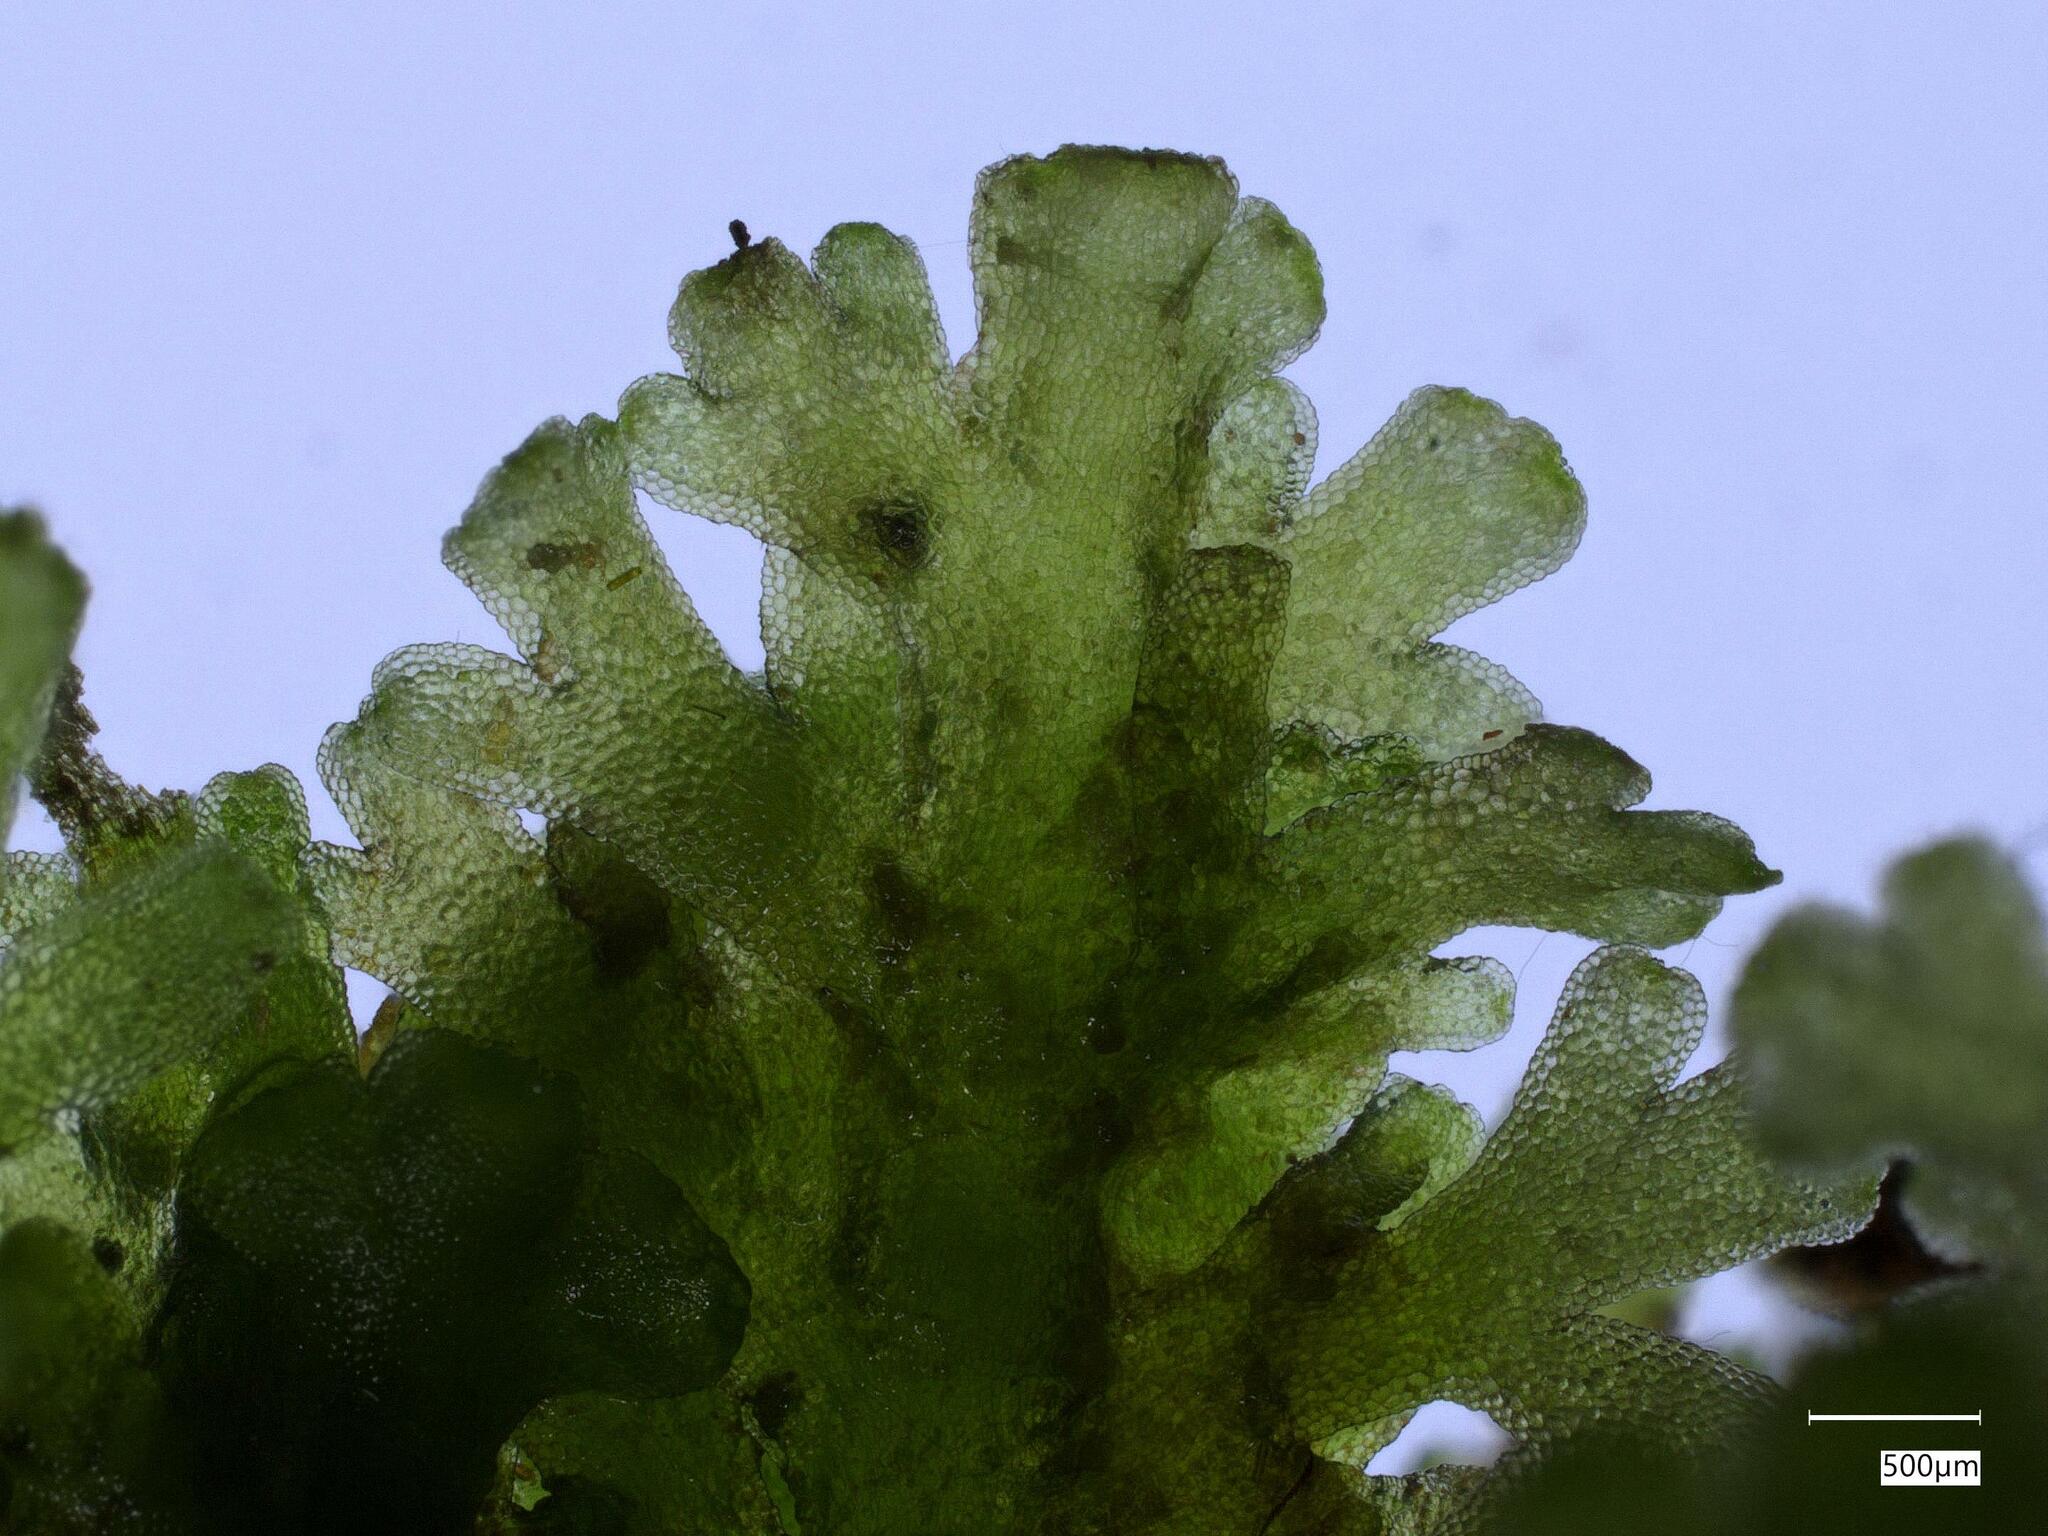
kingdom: Plantae
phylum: Marchantiophyta
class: Jungermanniopsida
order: Metzgeriales
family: Aneuraceae
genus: Riccardia
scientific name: Riccardia multifida
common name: Delicate germanderwort
